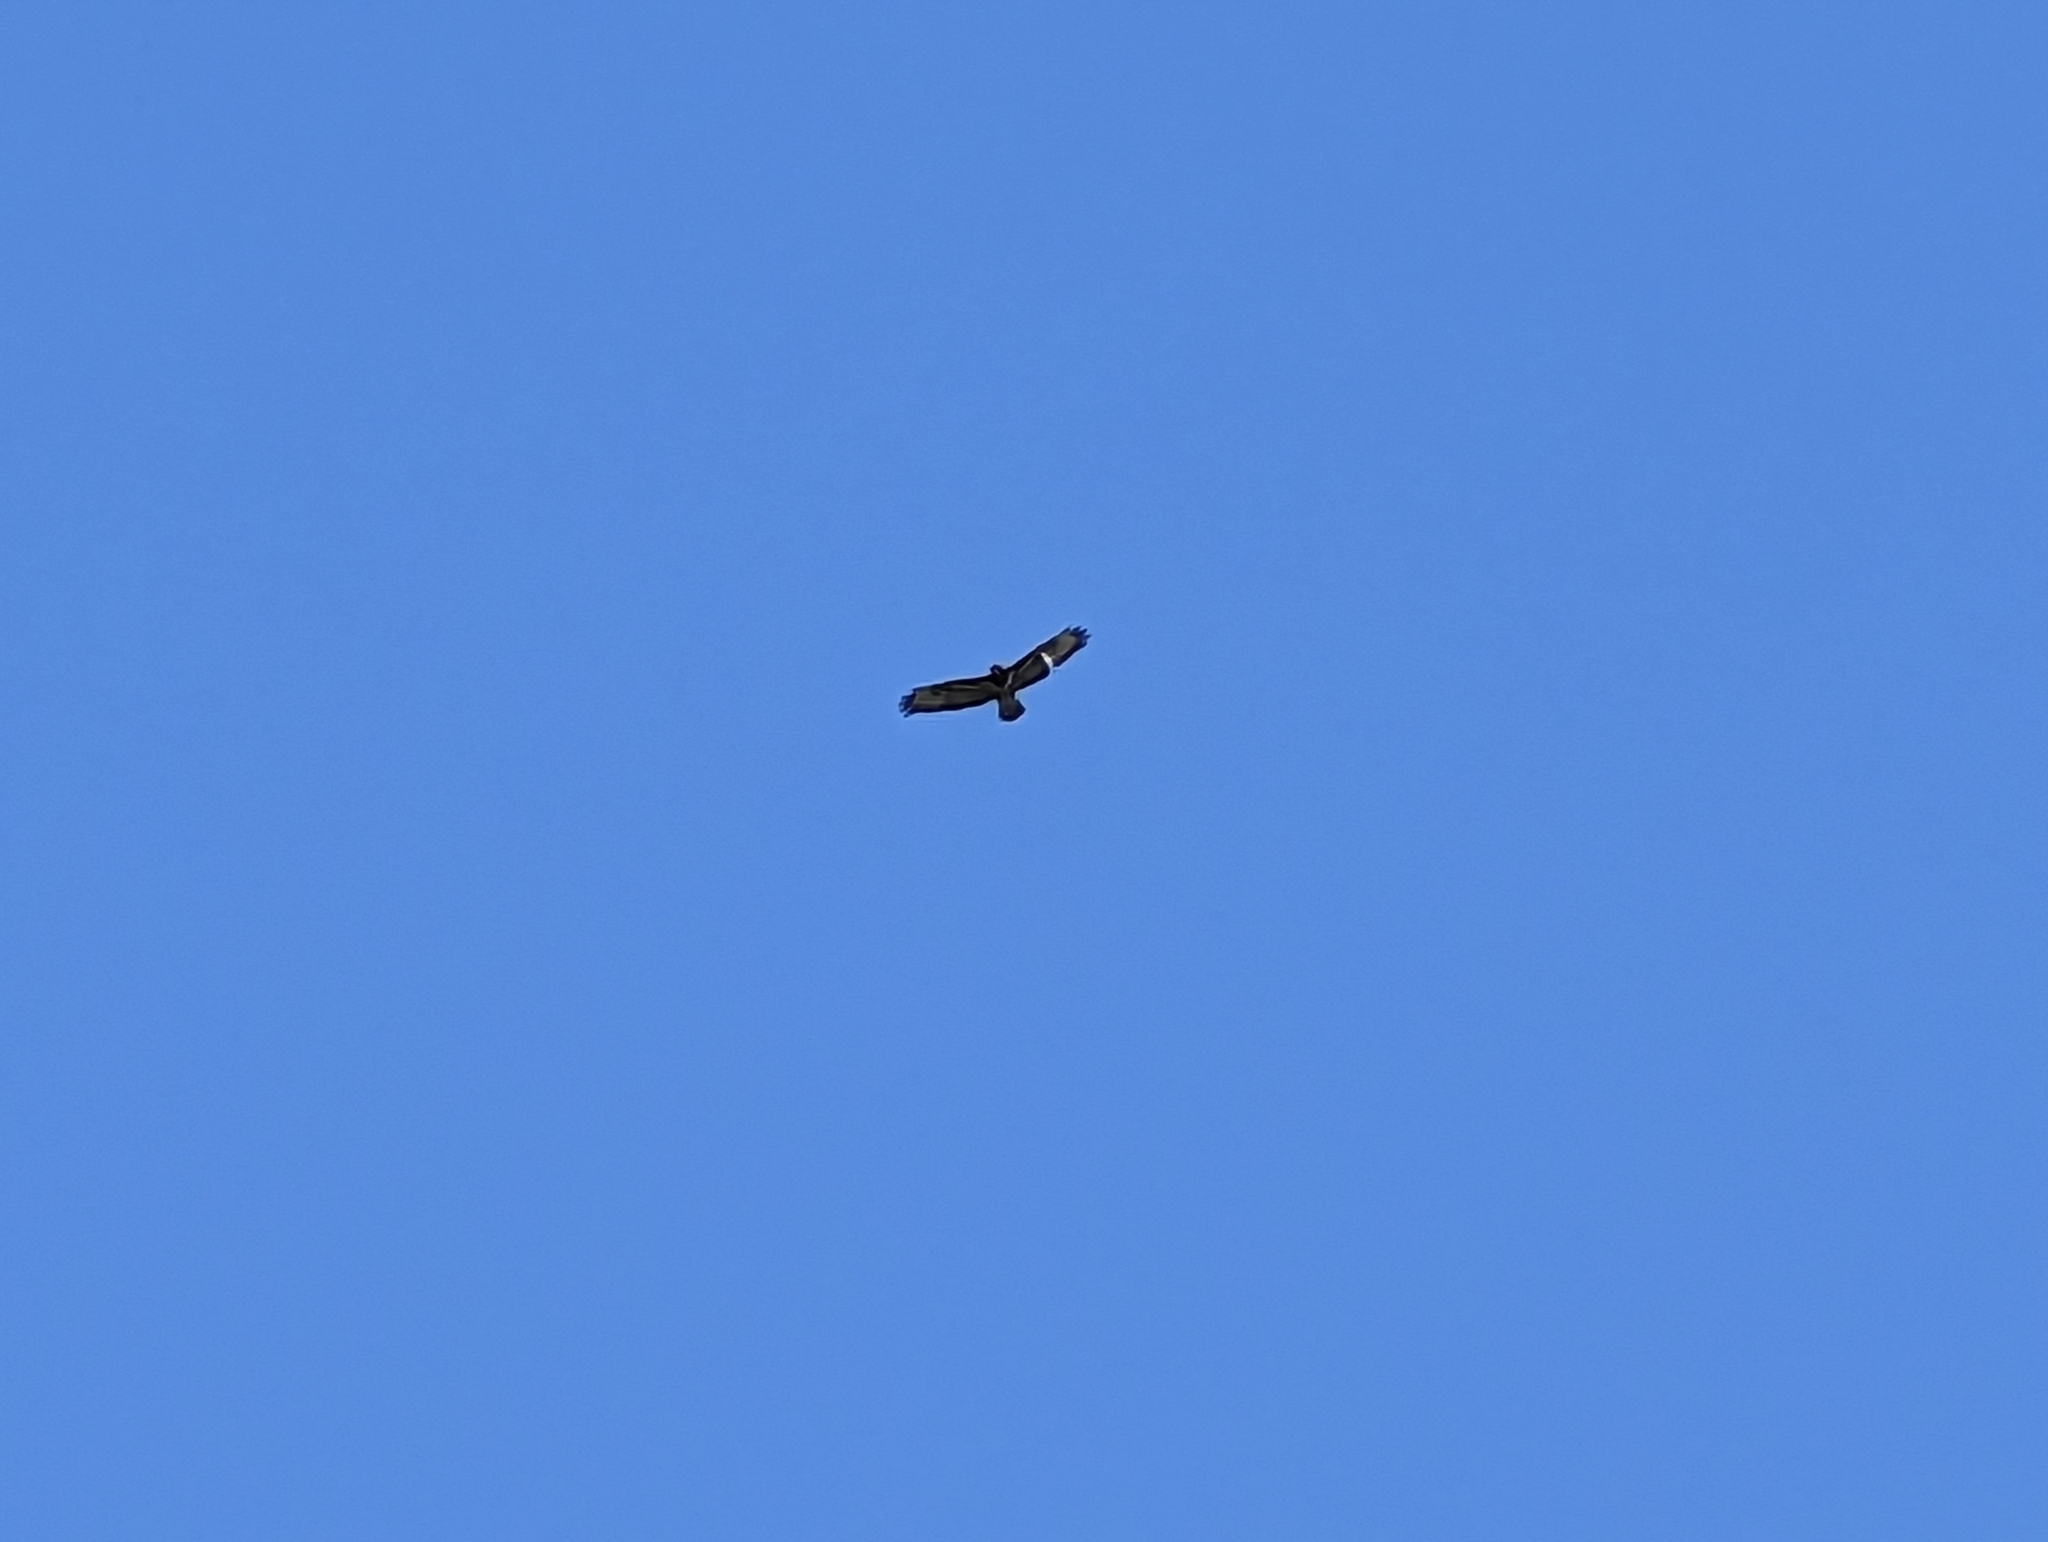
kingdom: Animalia
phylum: Chordata
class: Aves
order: Accipitriformes
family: Accipitridae
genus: Buteo
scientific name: Buteo buteo
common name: Common buzzard
